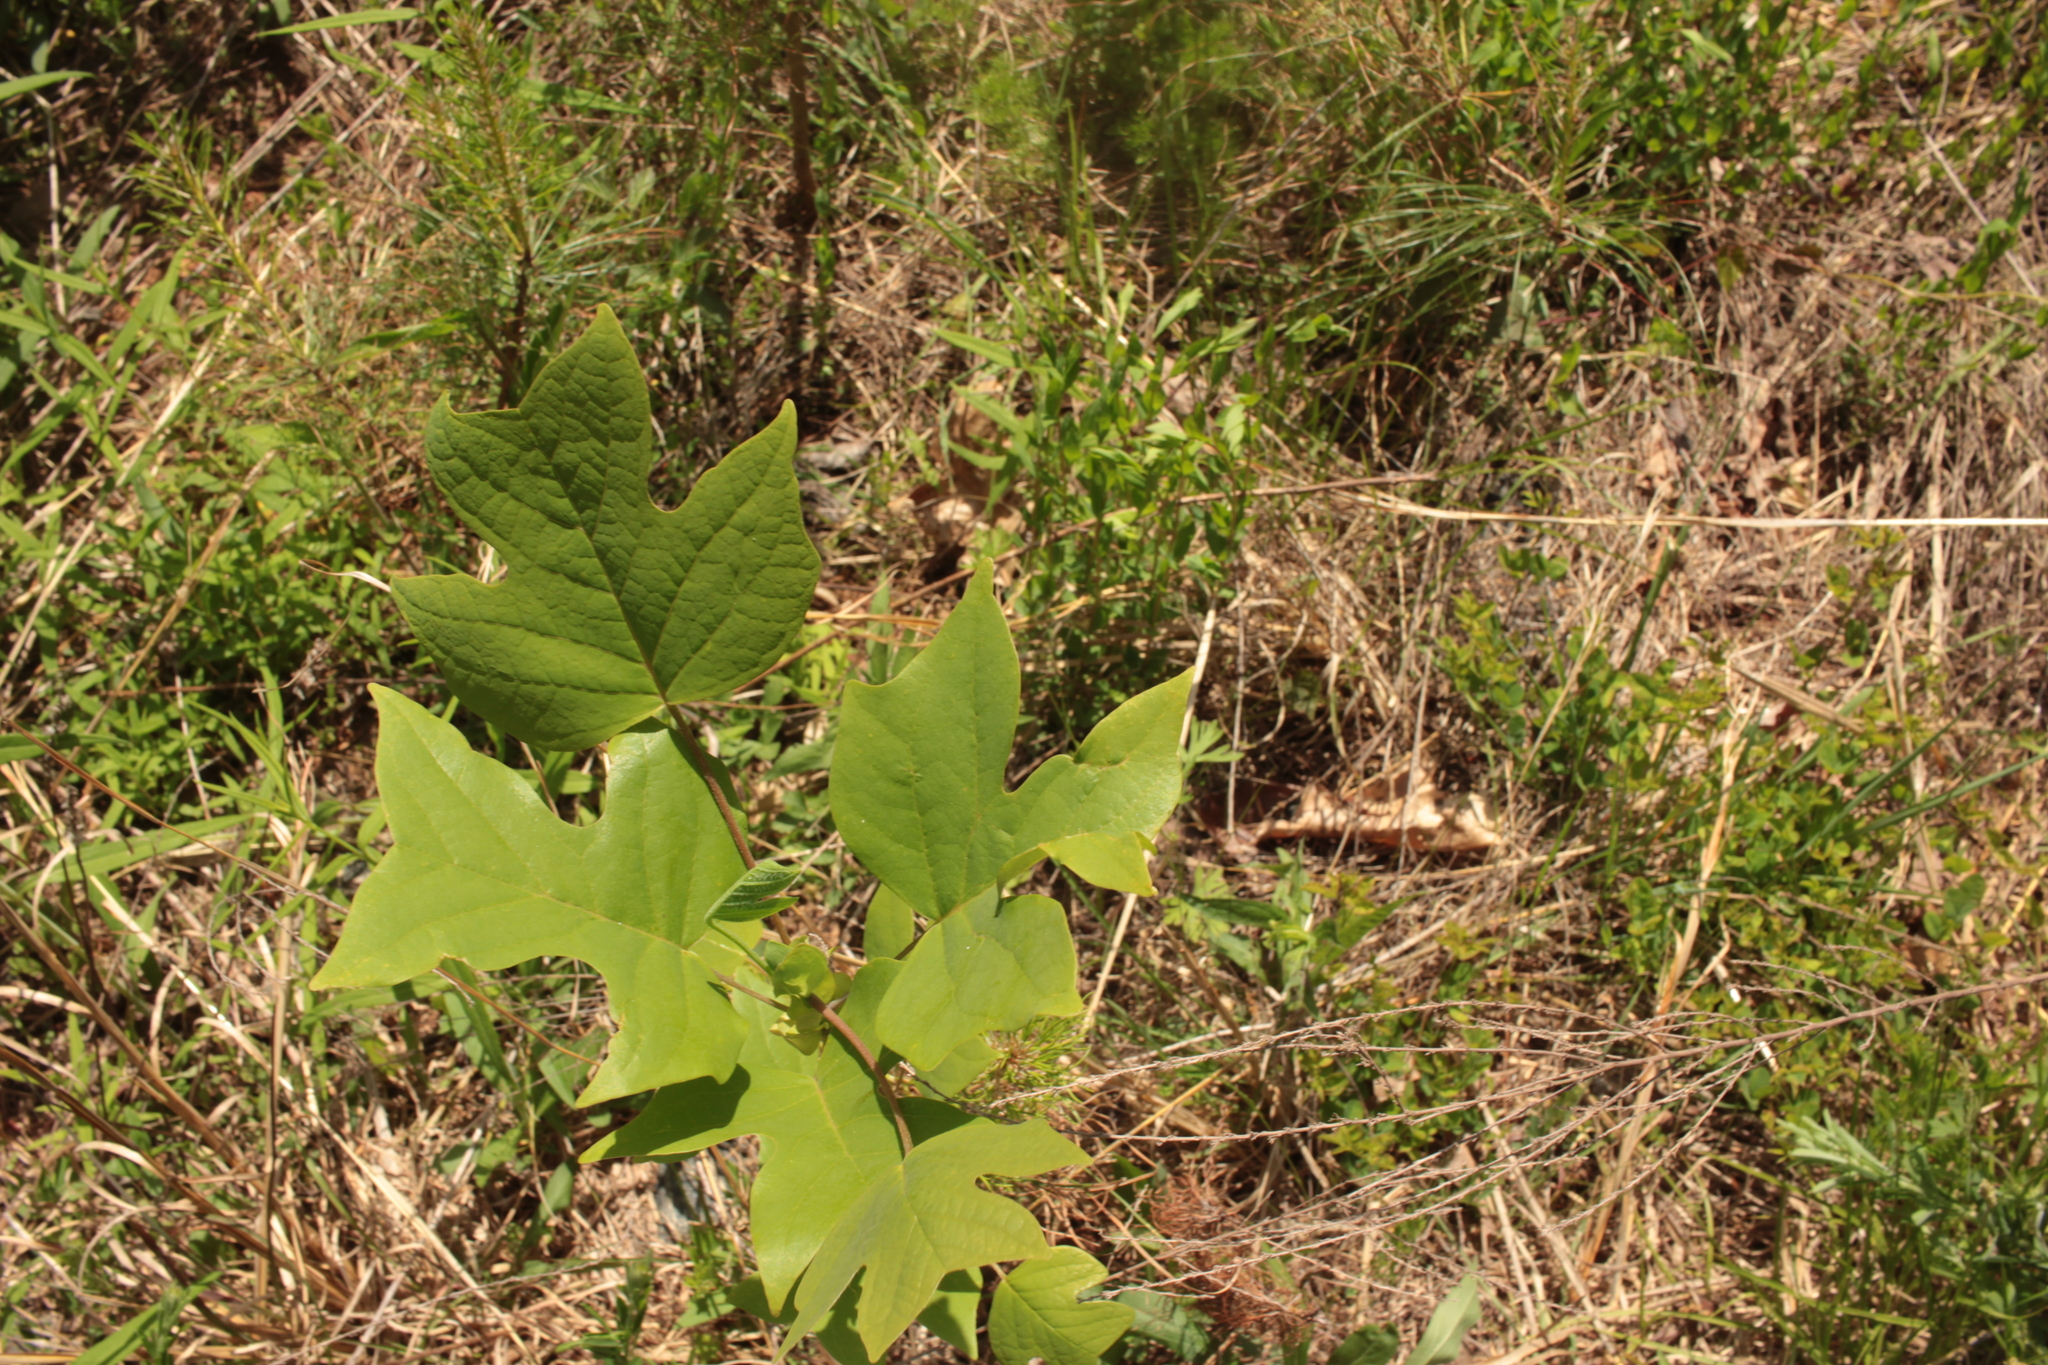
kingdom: Plantae
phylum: Tracheophyta
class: Magnoliopsida
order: Magnoliales
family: Magnoliaceae
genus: Liriodendron
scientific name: Liriodendron tulipifera
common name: Tulip tree
